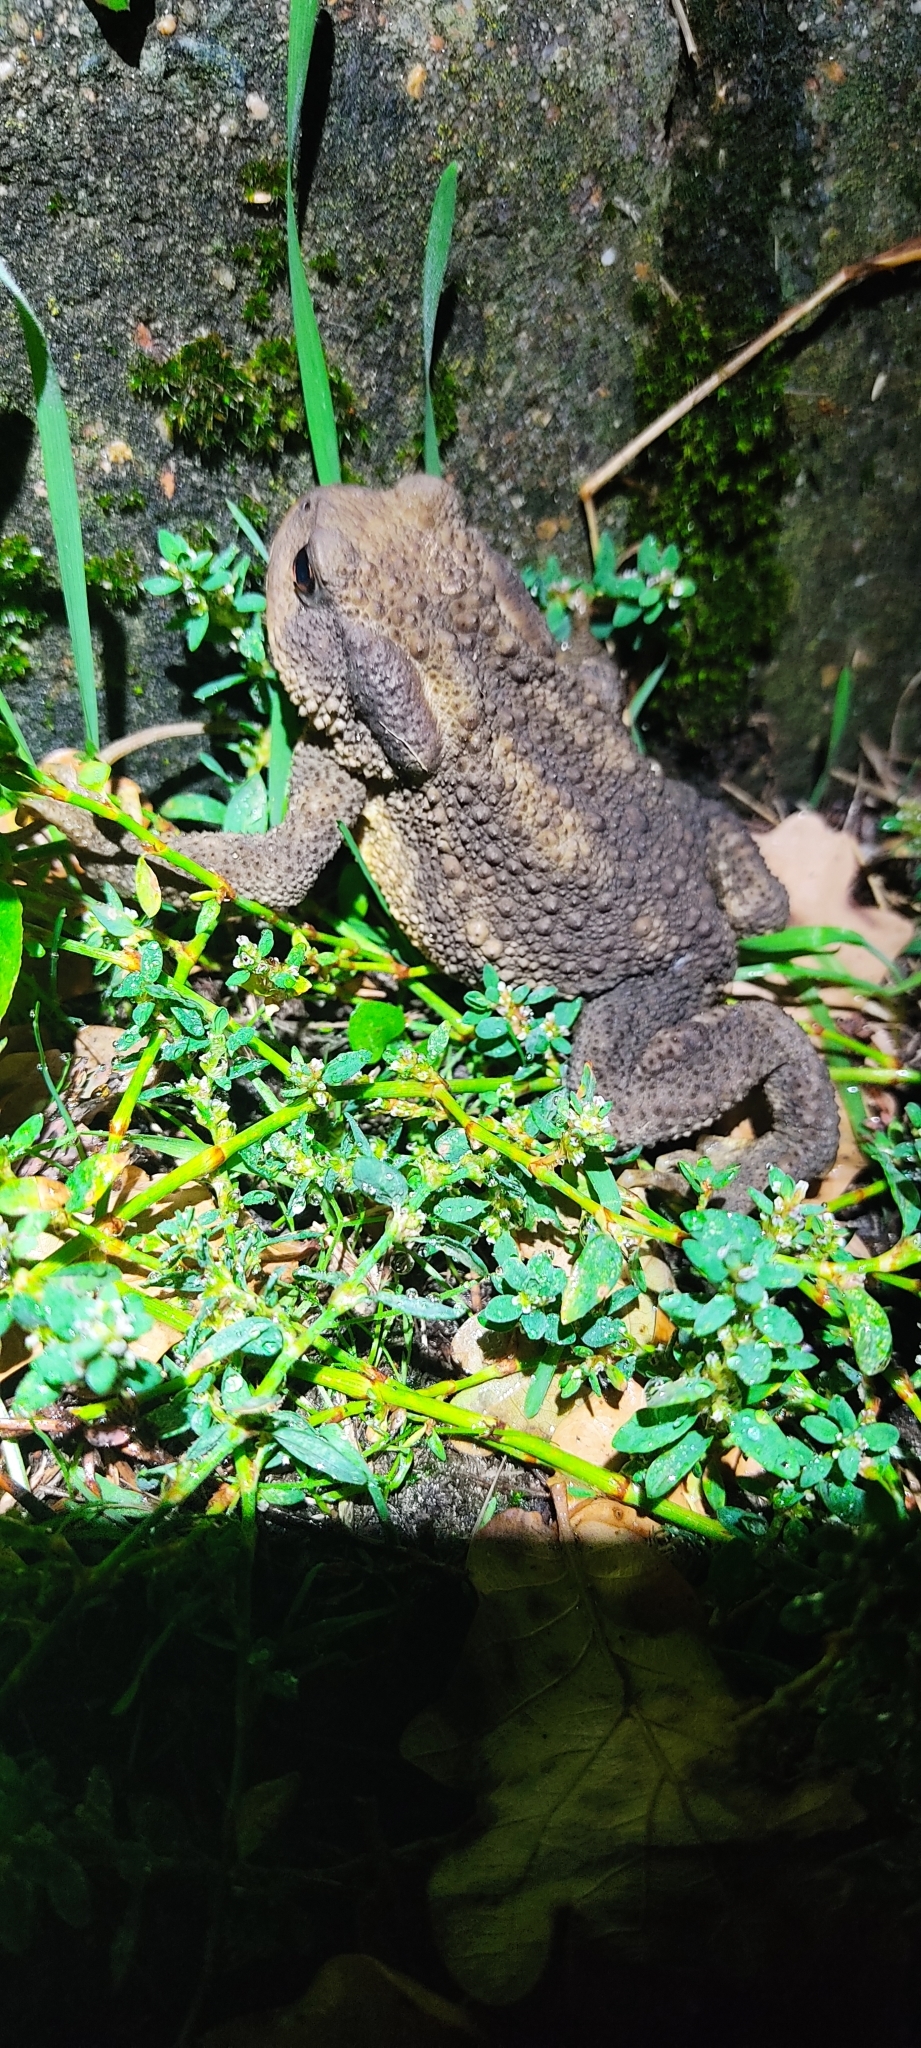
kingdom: Animalia
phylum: Chordata
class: Amphibia
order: Anura
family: Bufonidae
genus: Bufo
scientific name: Bufo spinosus
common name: Western common toad
